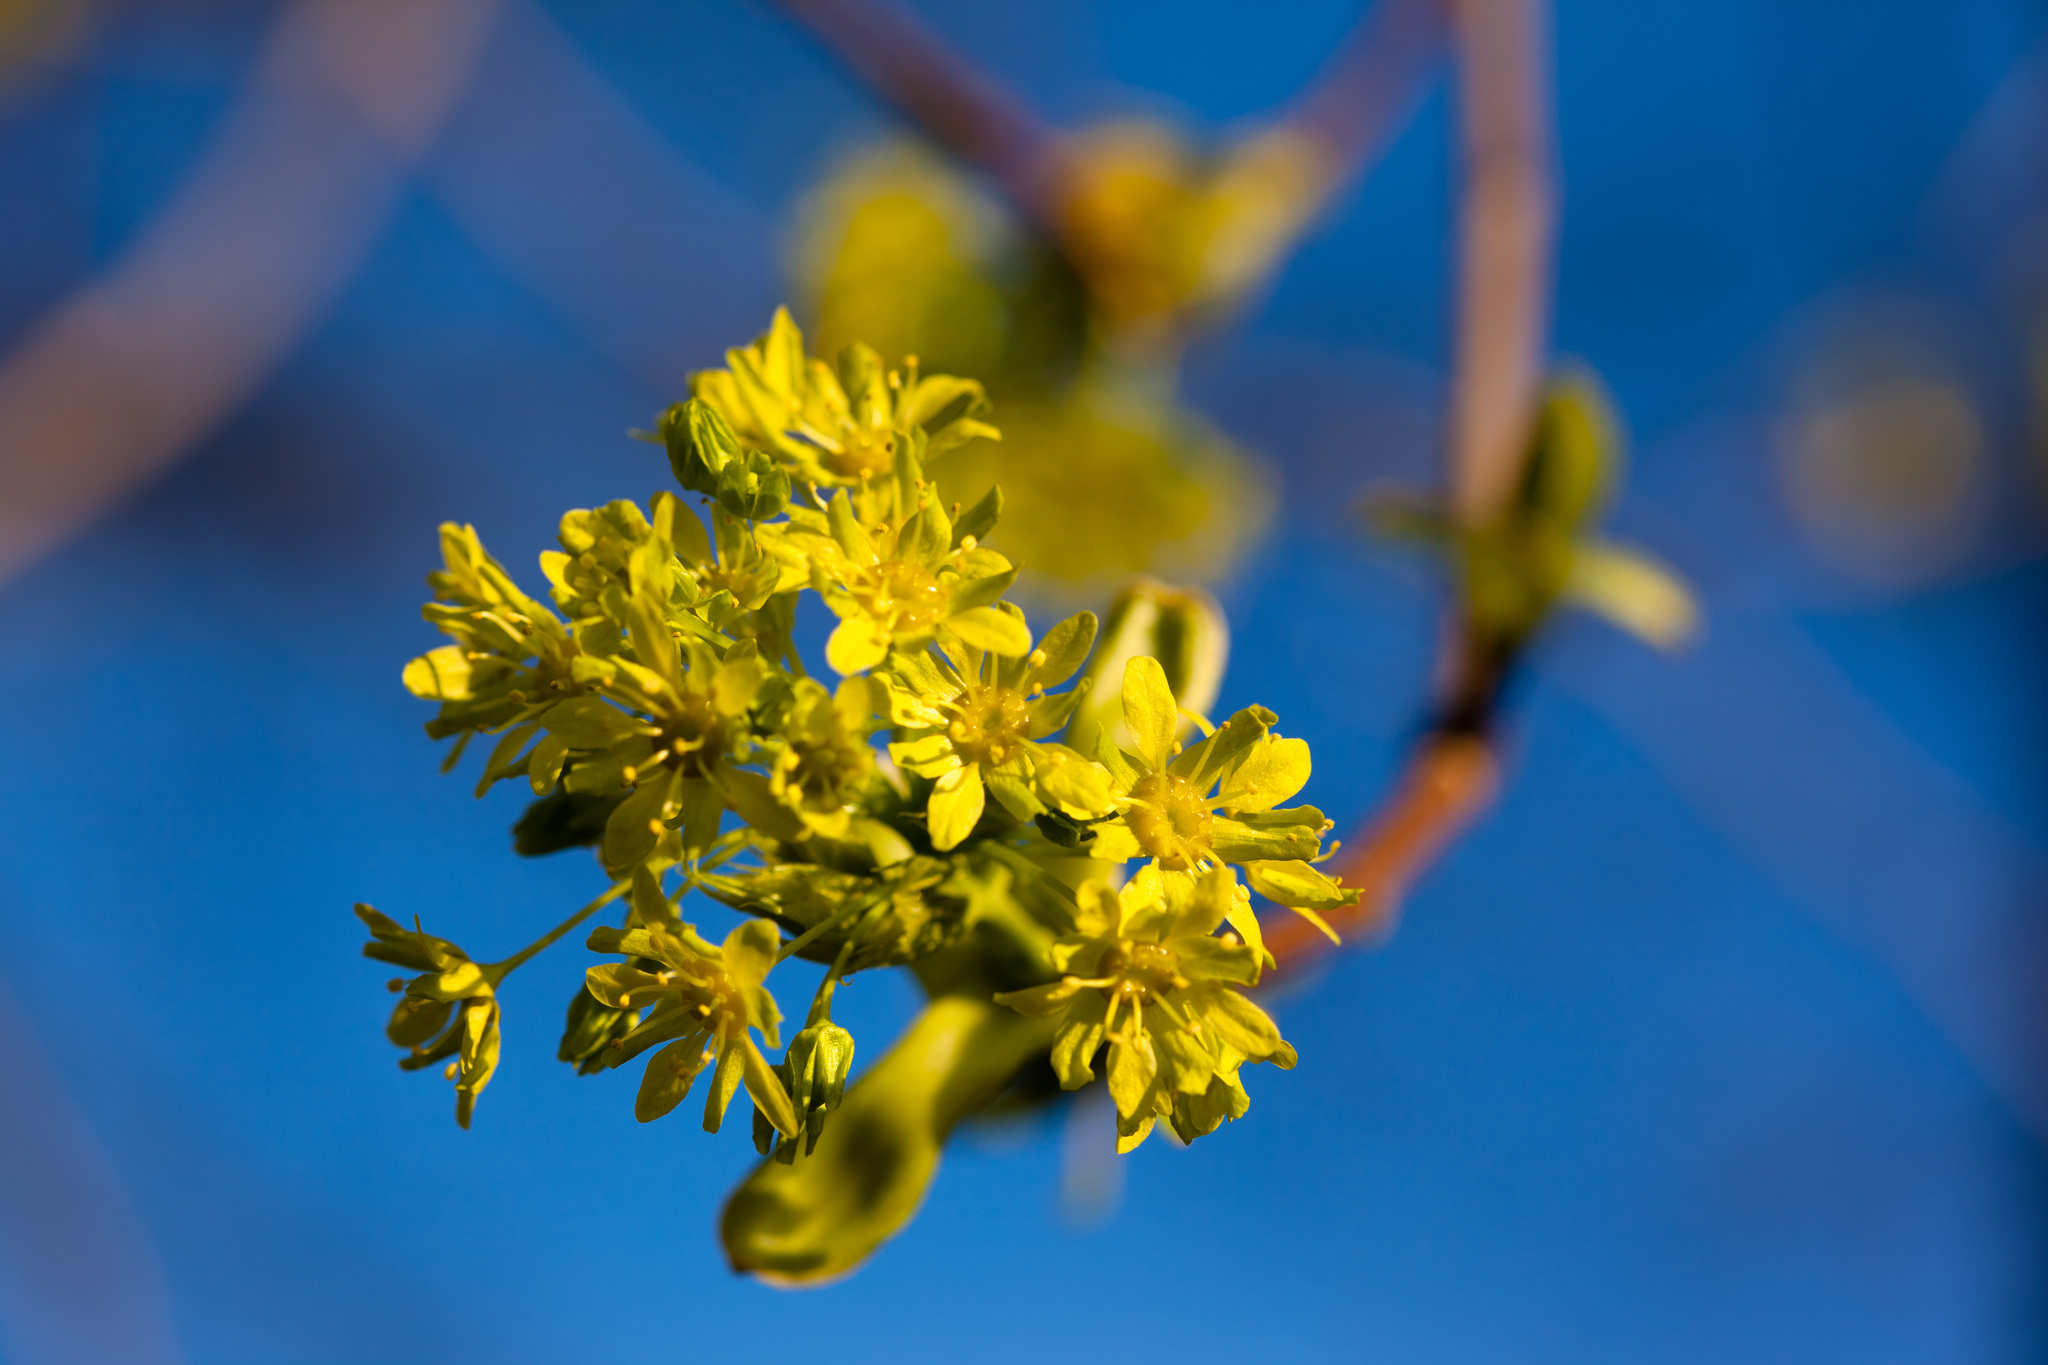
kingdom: Plantae
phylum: Tracheophyta
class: Magnoliopsida
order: Sapindales
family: Sapindaceae
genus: Acer
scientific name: Acer platanoides
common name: Norway maple
